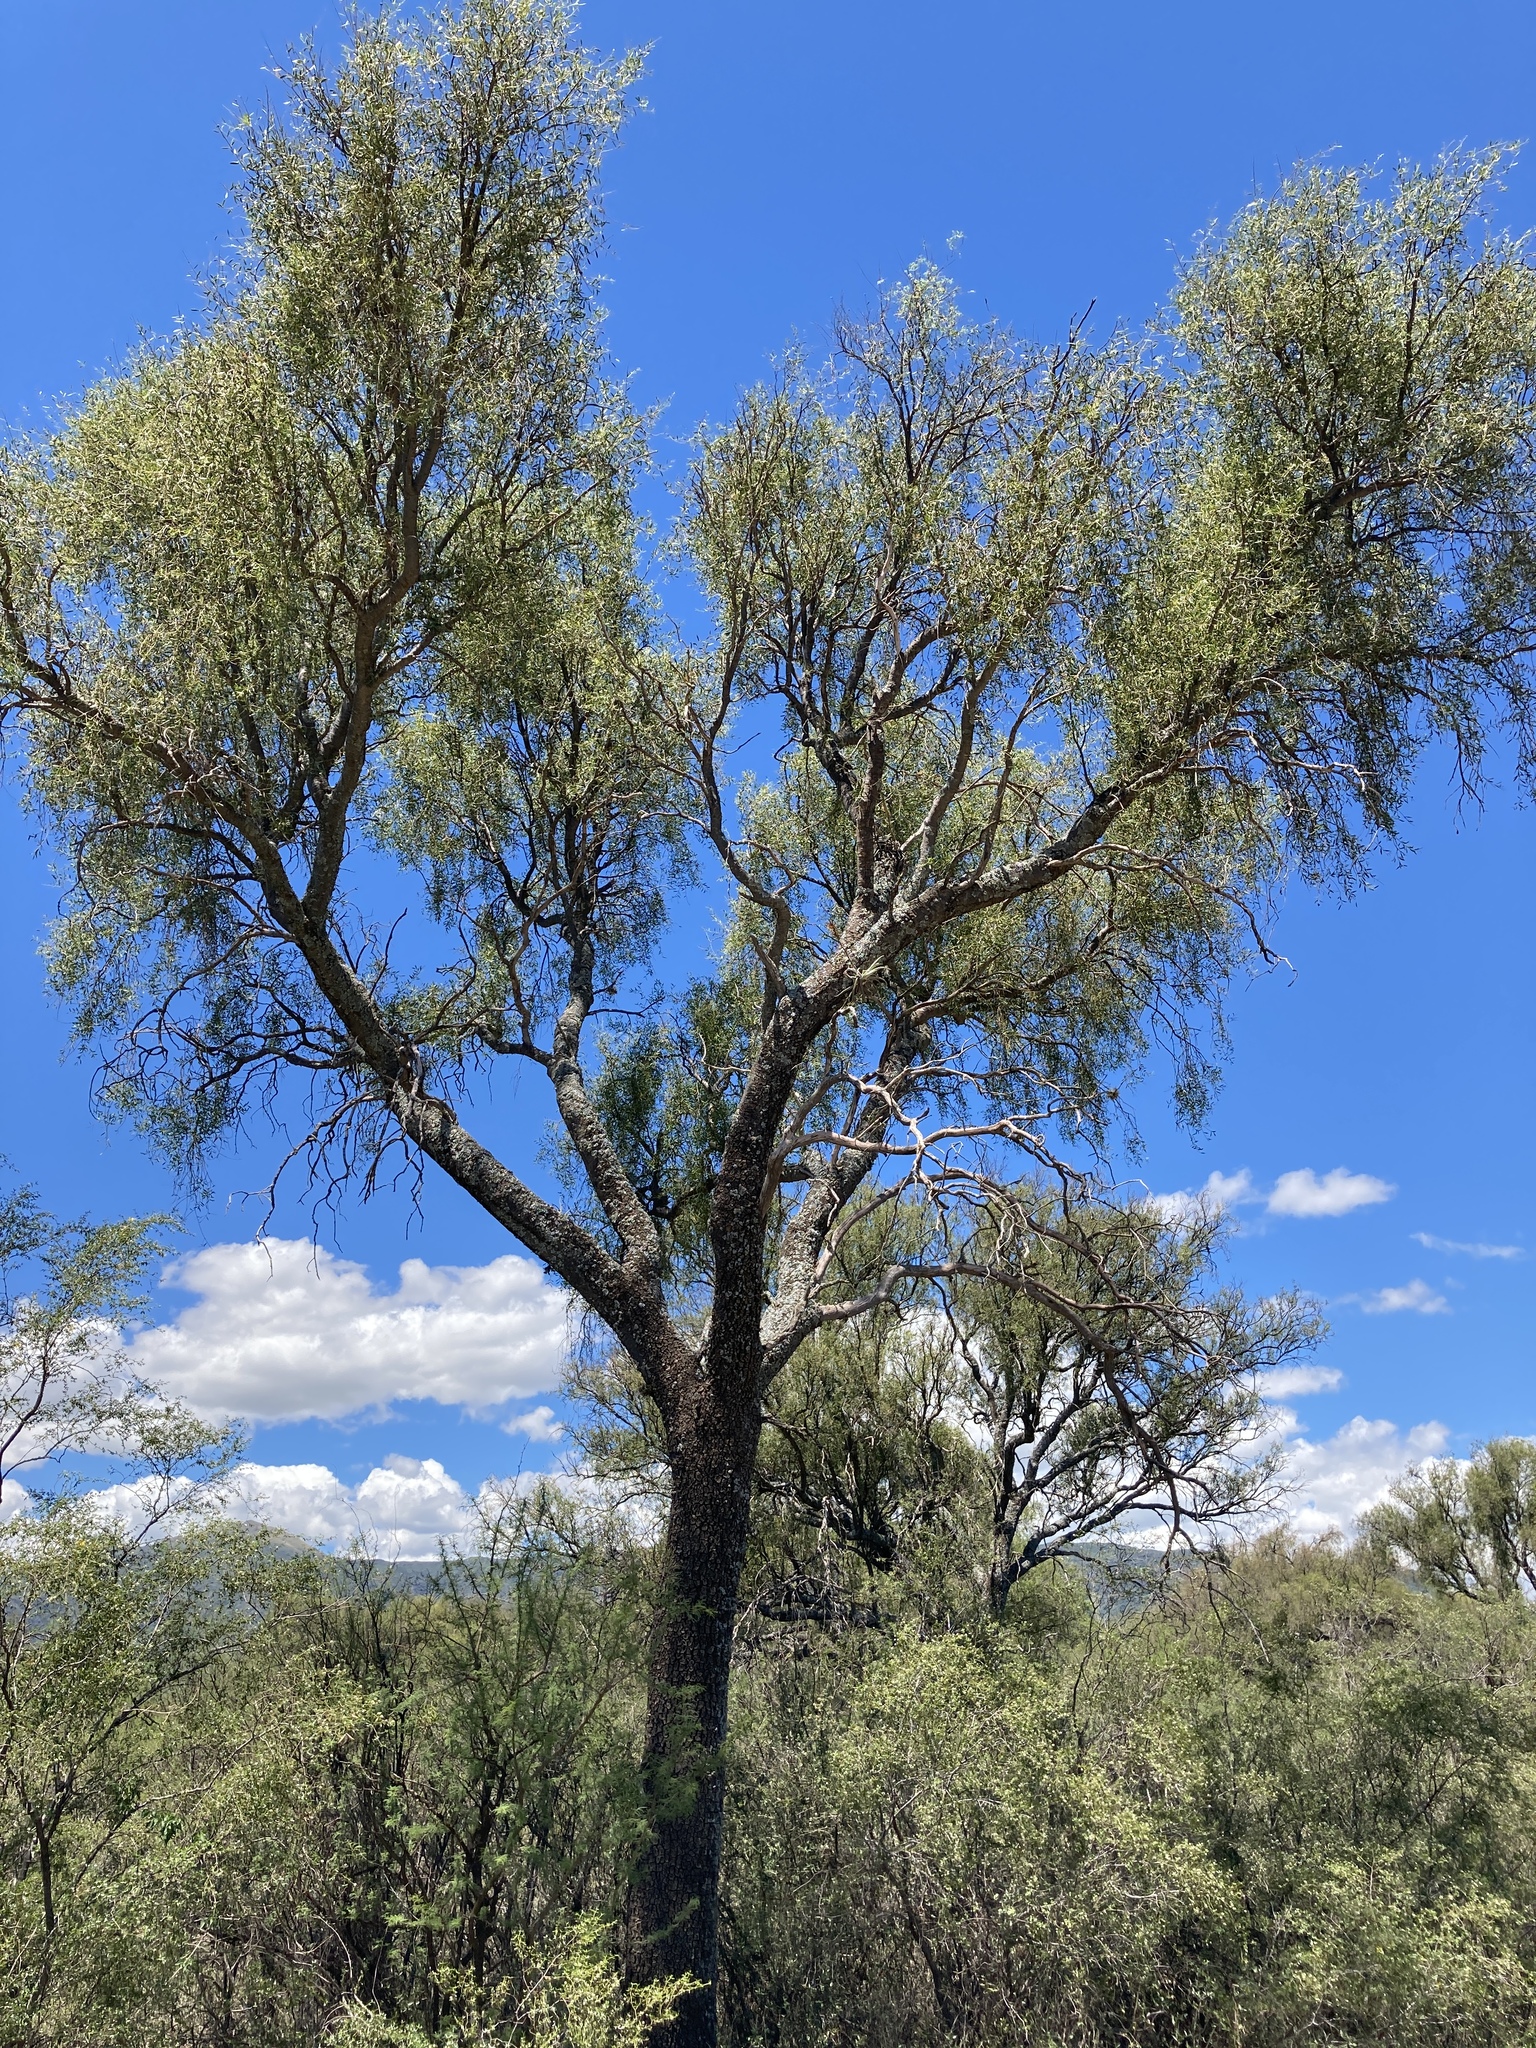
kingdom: Plantae
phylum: Tracheophyta
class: Magnoliopsida
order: Gentianales
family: Apocynaceae
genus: Aspidosperma
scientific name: Aspidosperma quebracho-blanco
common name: White quebracho
